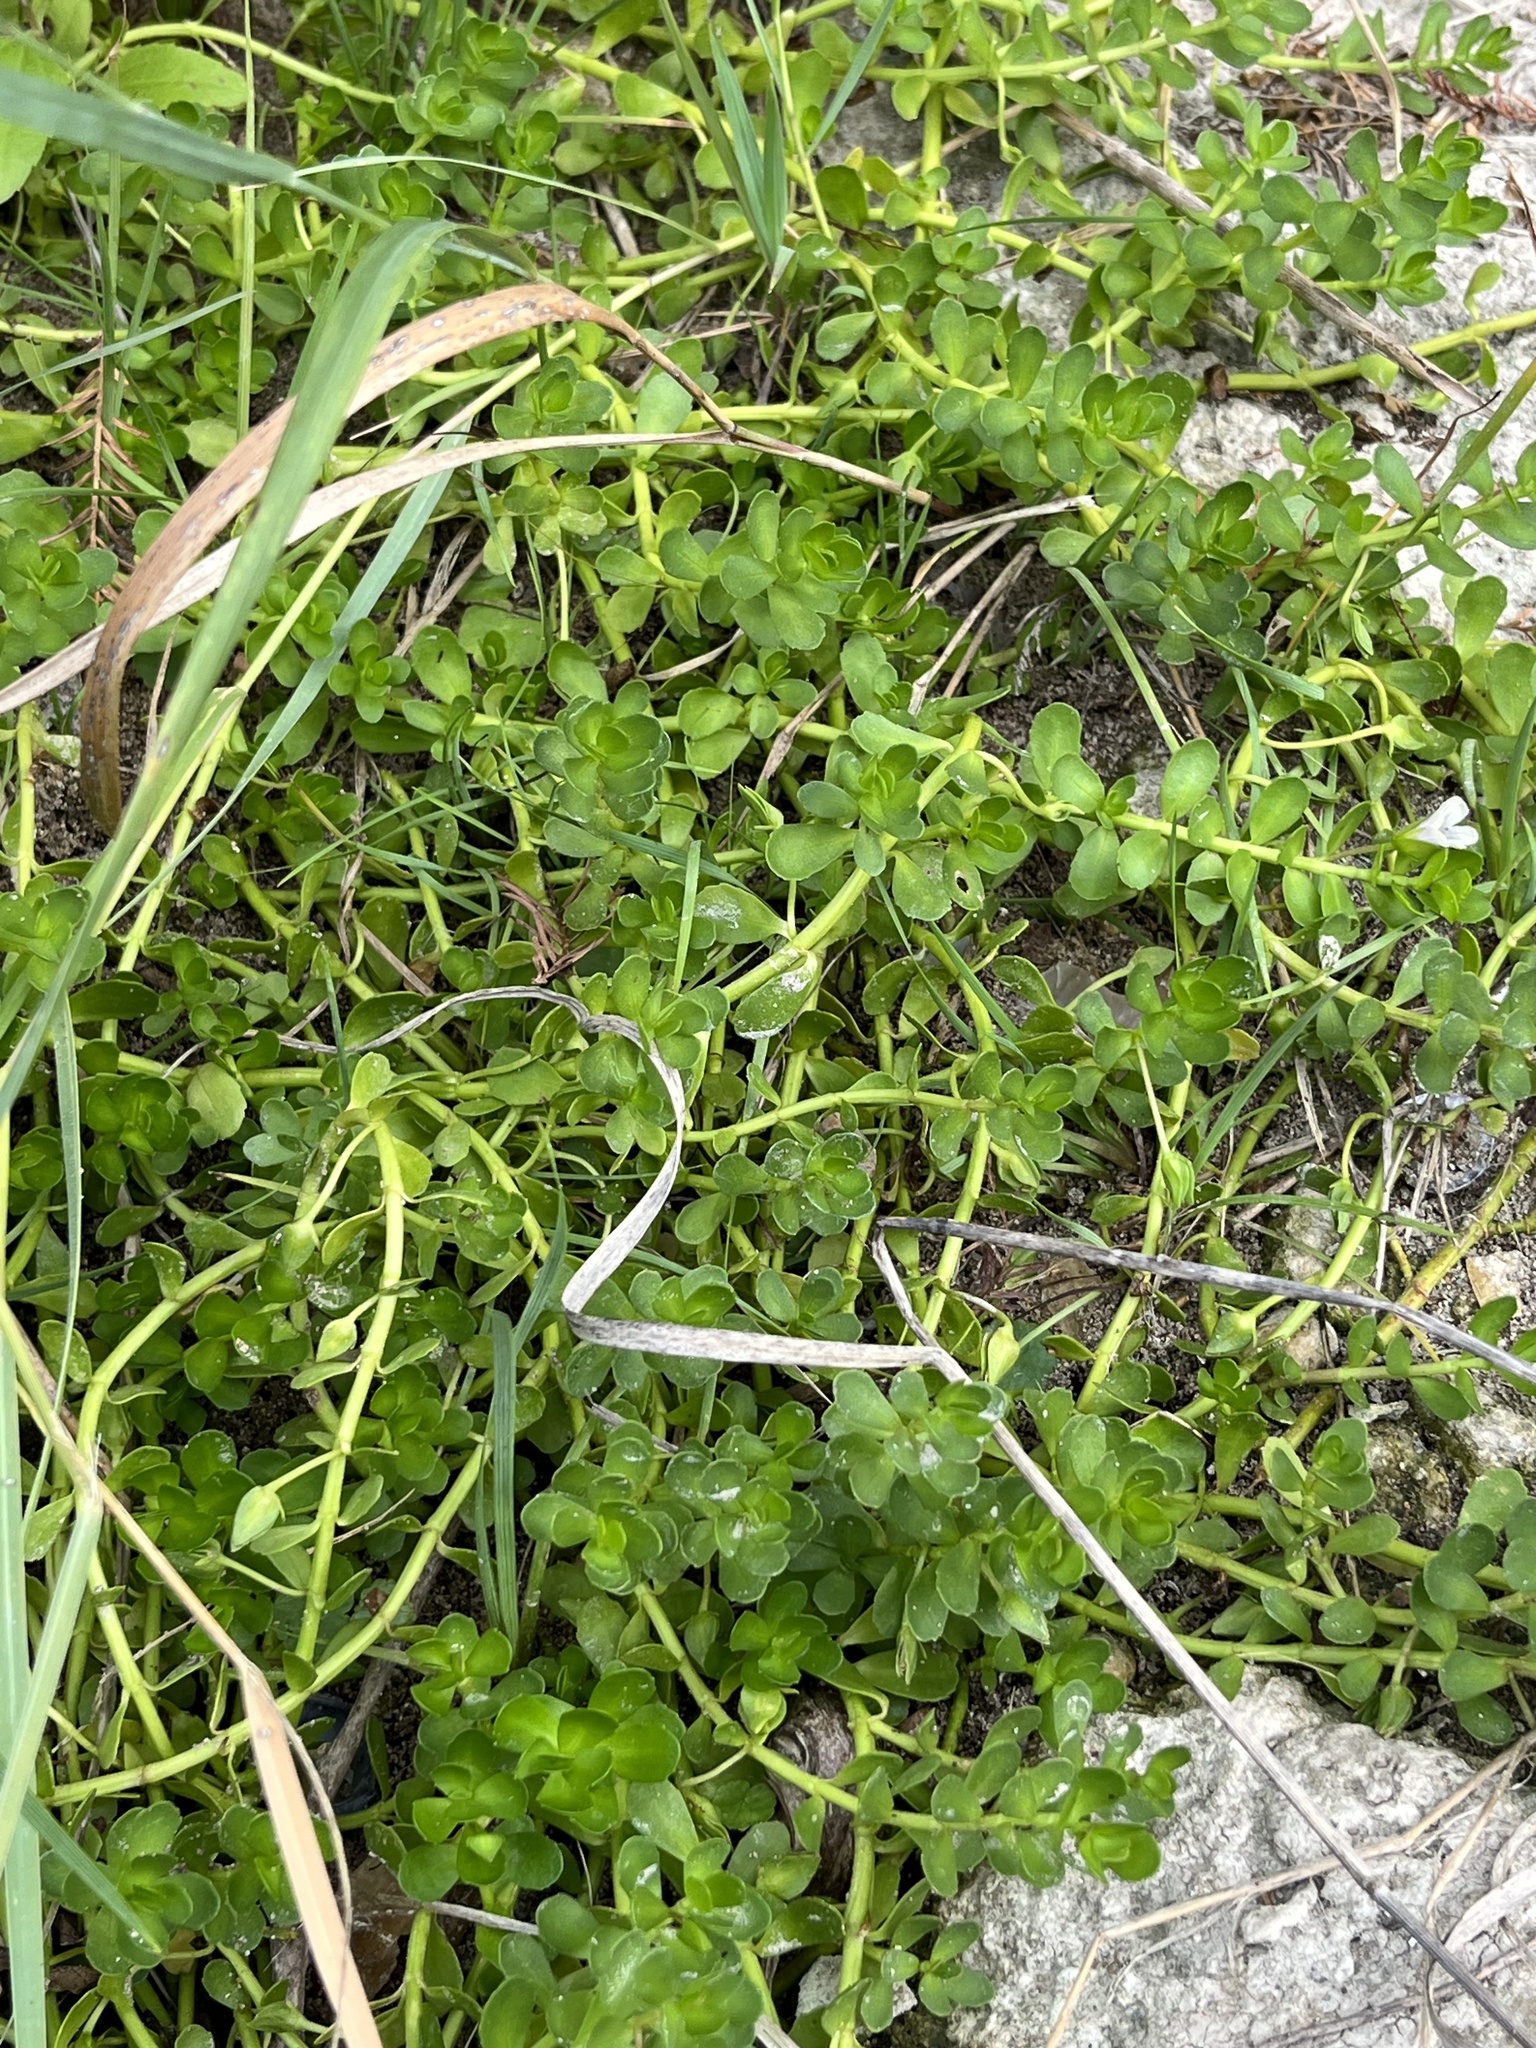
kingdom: Plantae
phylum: Tracheophyta
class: Magnoliopsida
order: Lamiales
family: Plantaginaceae
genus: Bacopa
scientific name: Bacopa monnieri
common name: Indian-pennywort
